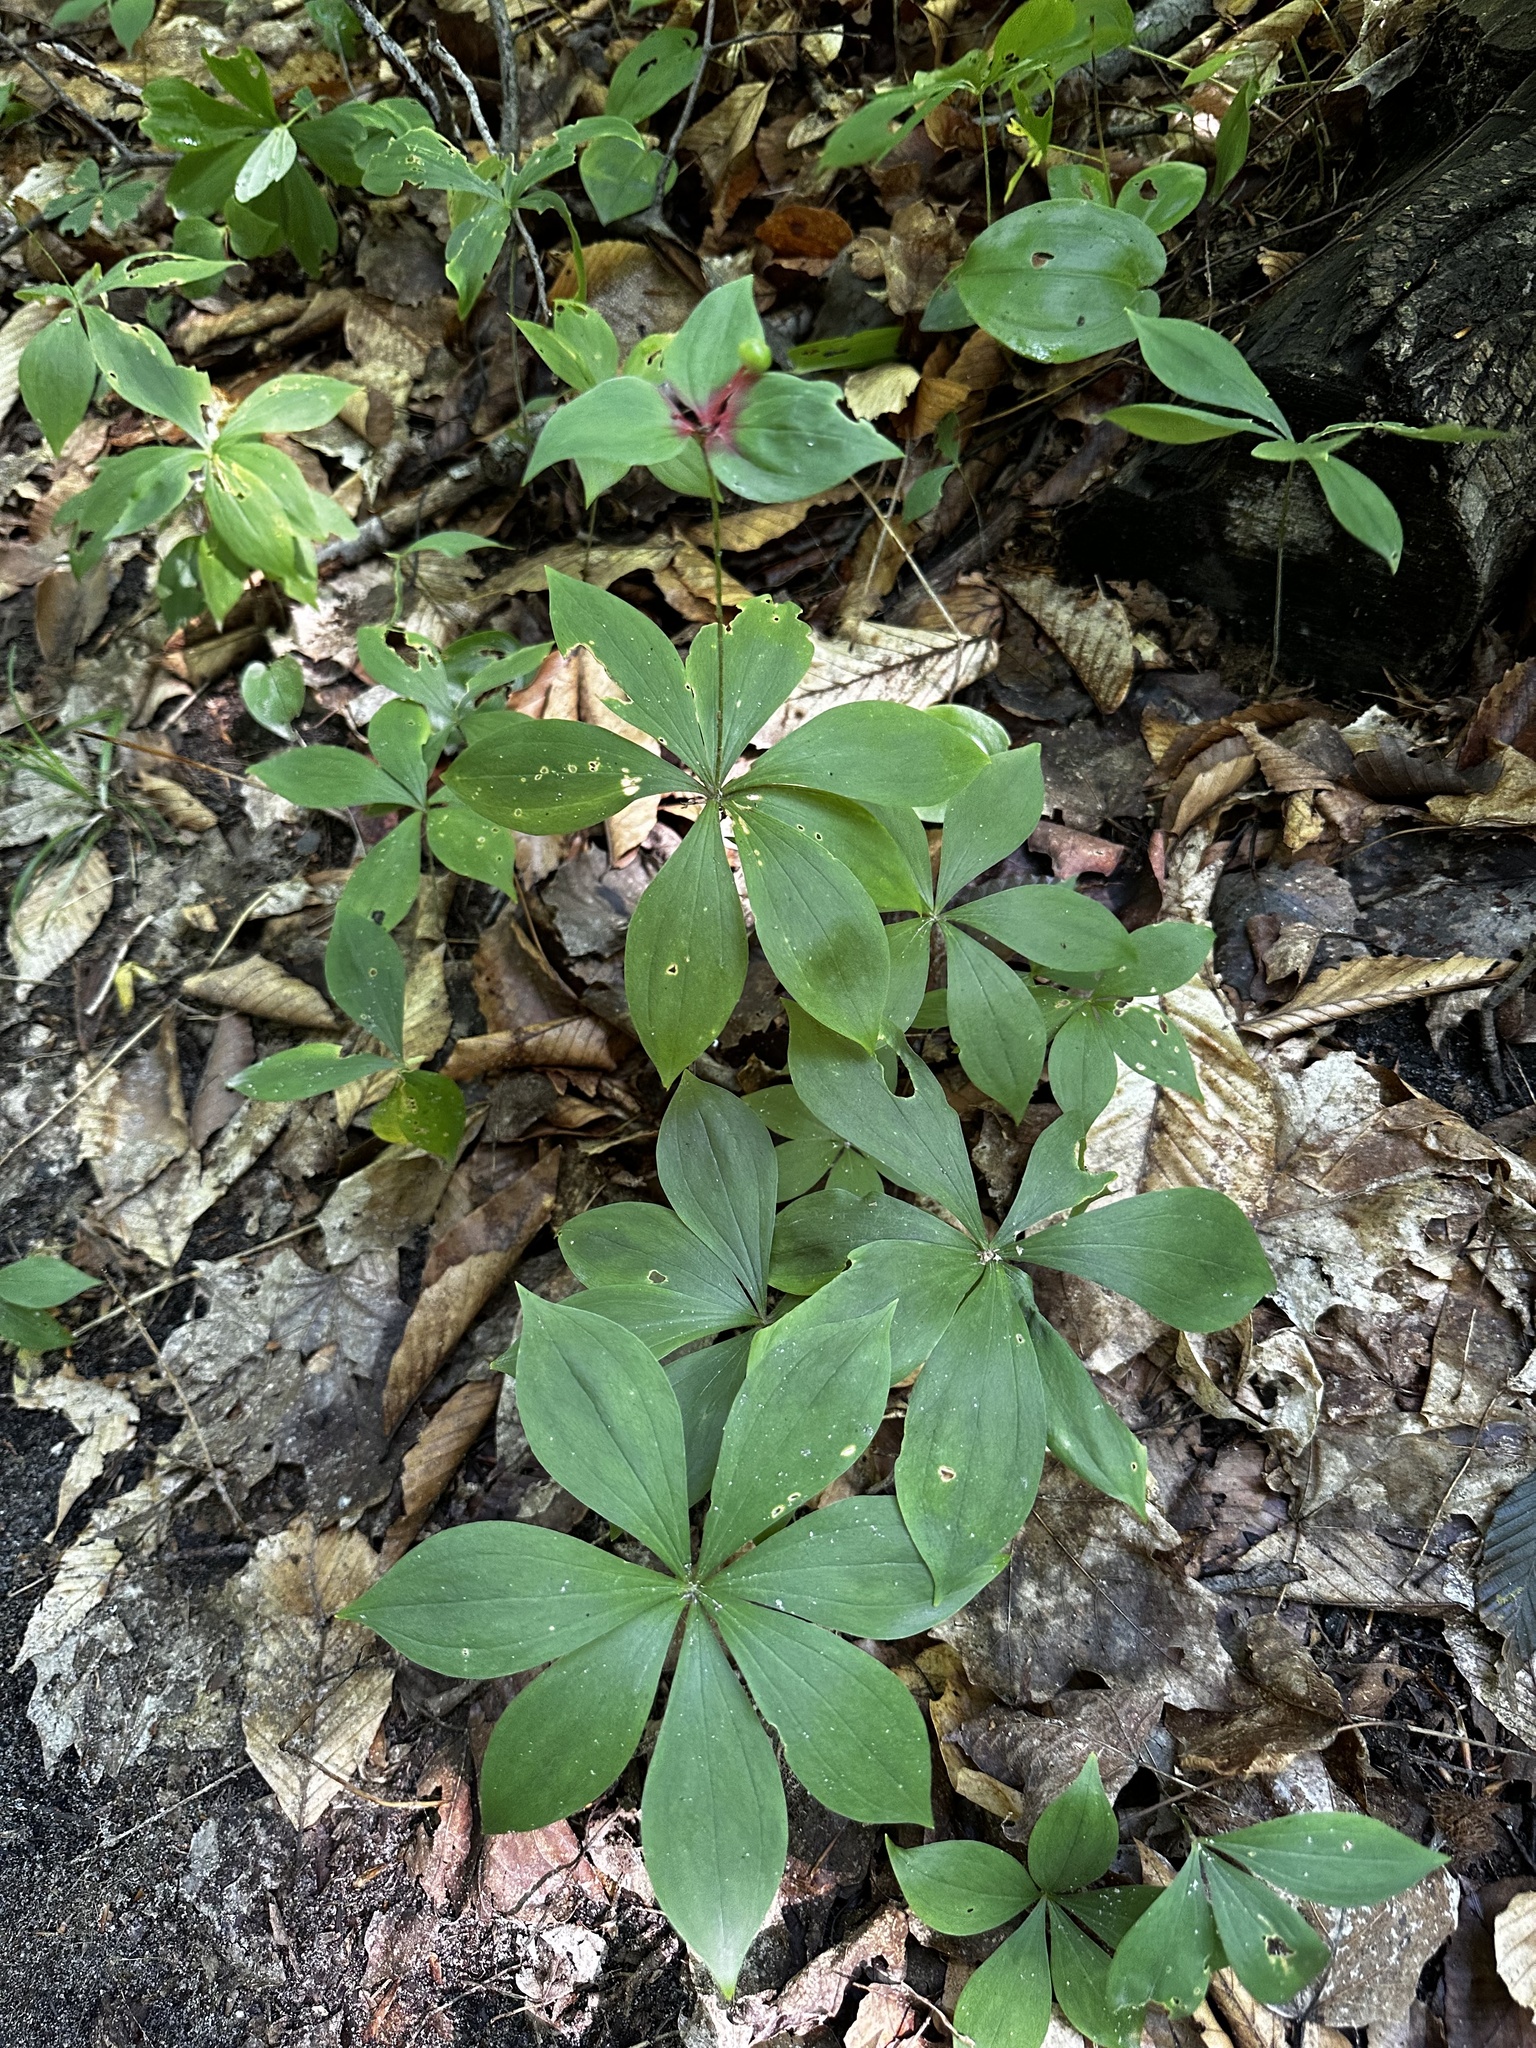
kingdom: Plantae
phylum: Tracheophyta
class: Liliopsida
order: Liliales
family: Liliaceae
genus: Medeola
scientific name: Medeola virginiana
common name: Indian cucumber-root
